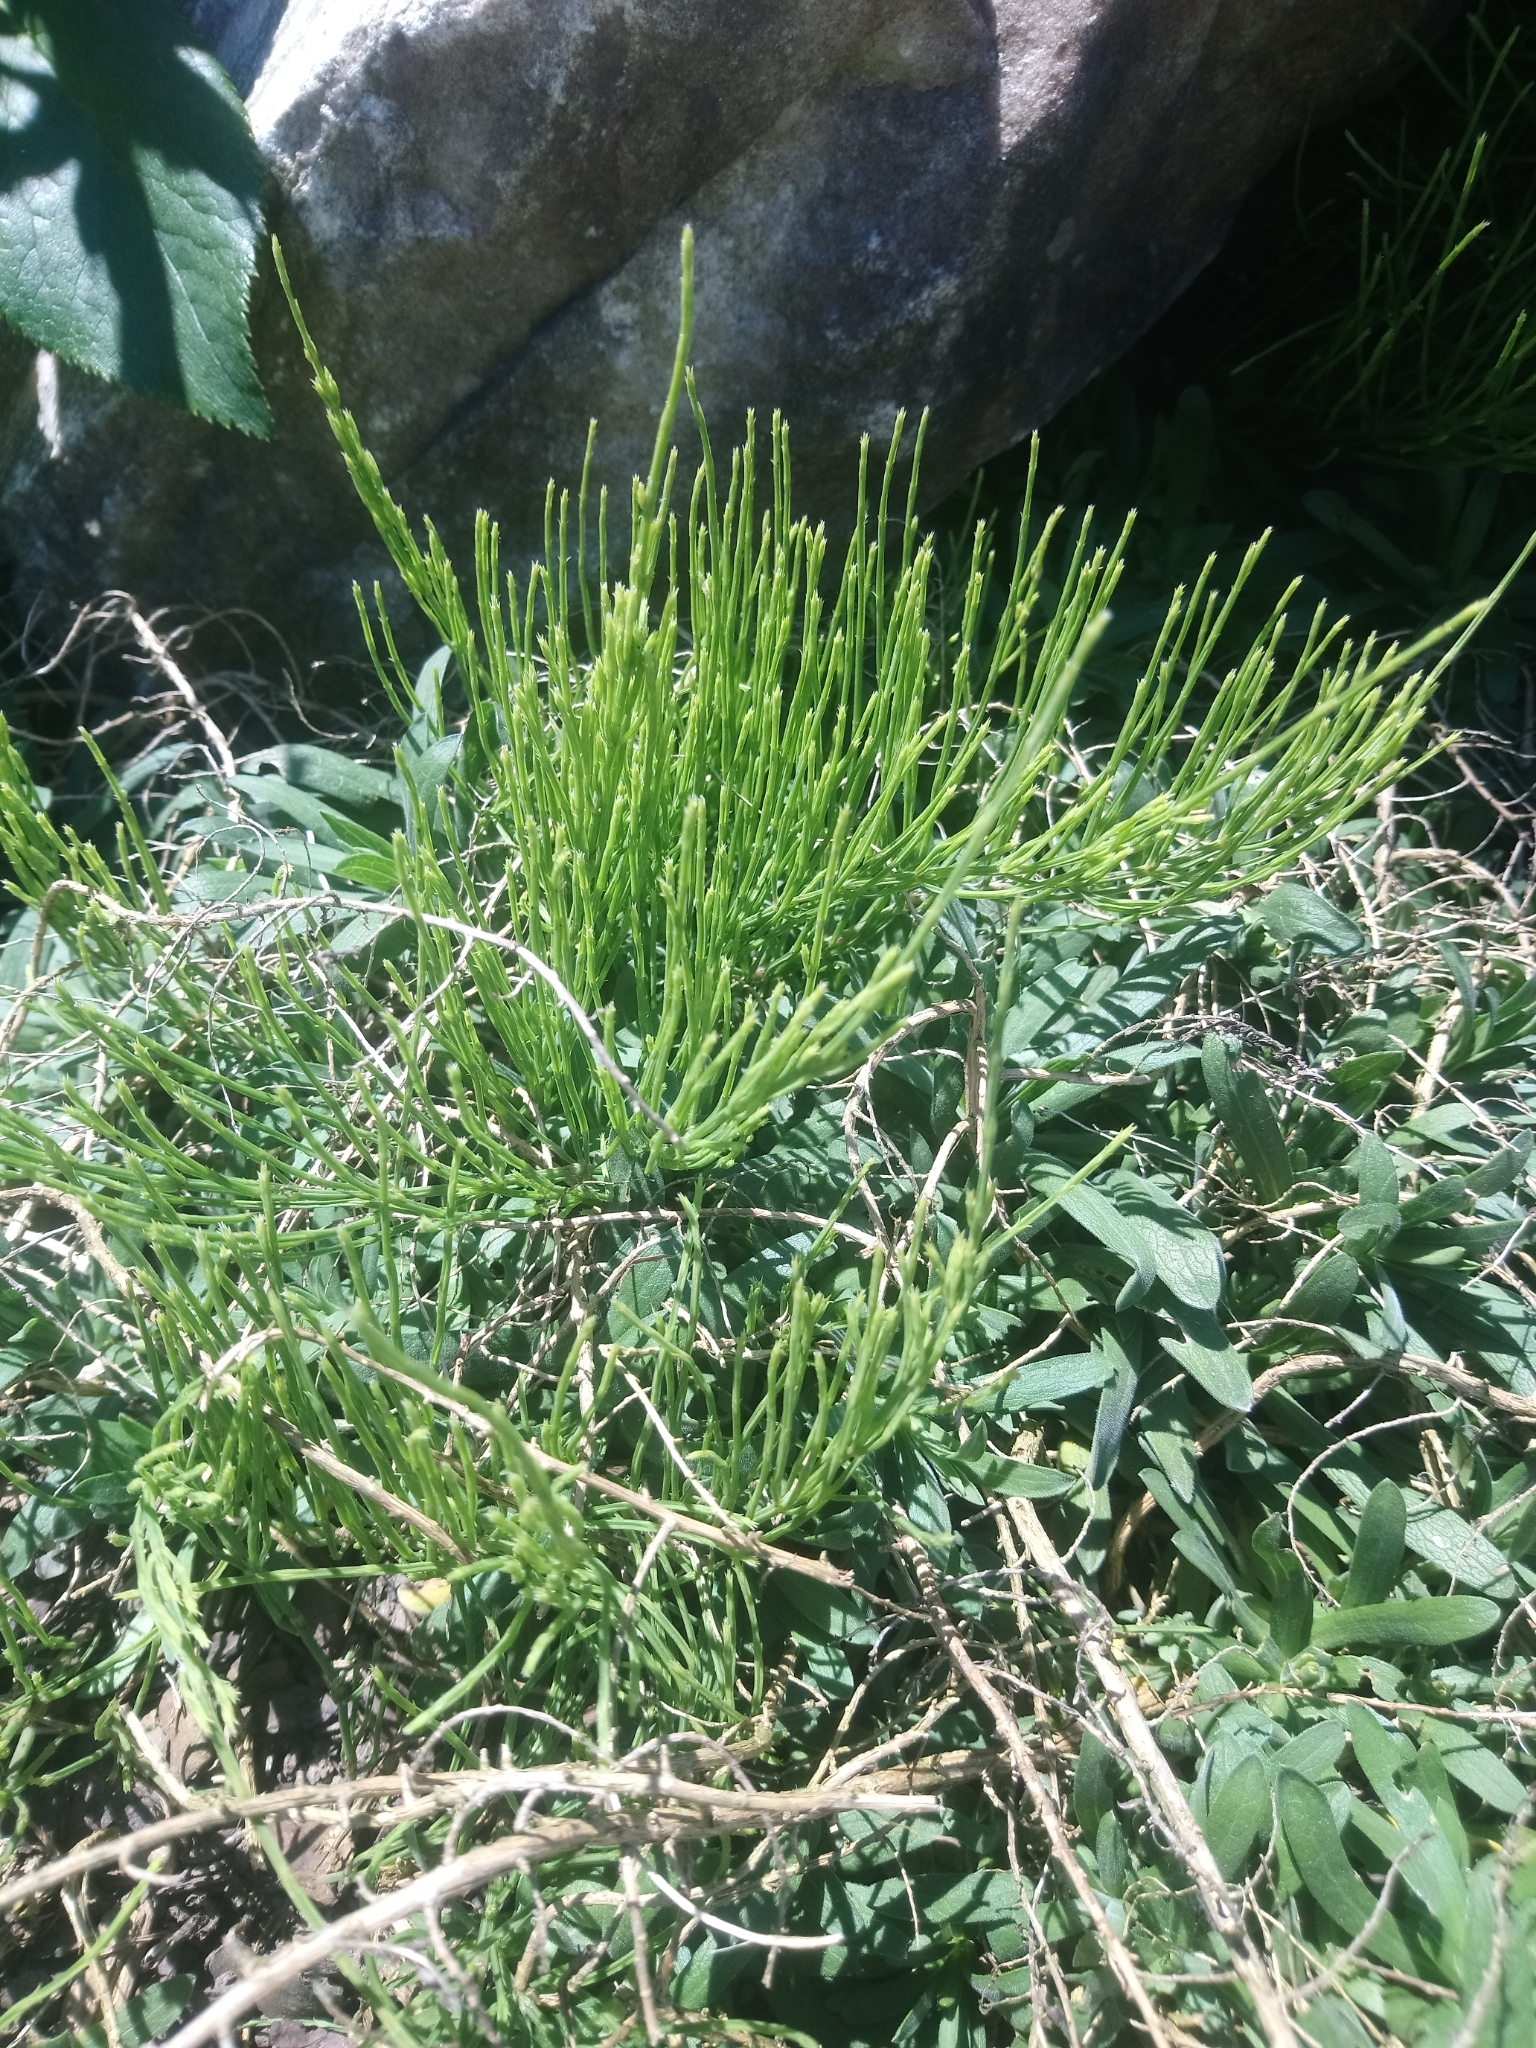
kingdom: Plantae
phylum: Tracheophyta
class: Polypodiopsida
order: Equisetales
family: Equisetaceae
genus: Equisetum
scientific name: Equisetum arvense
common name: Field horsetail
